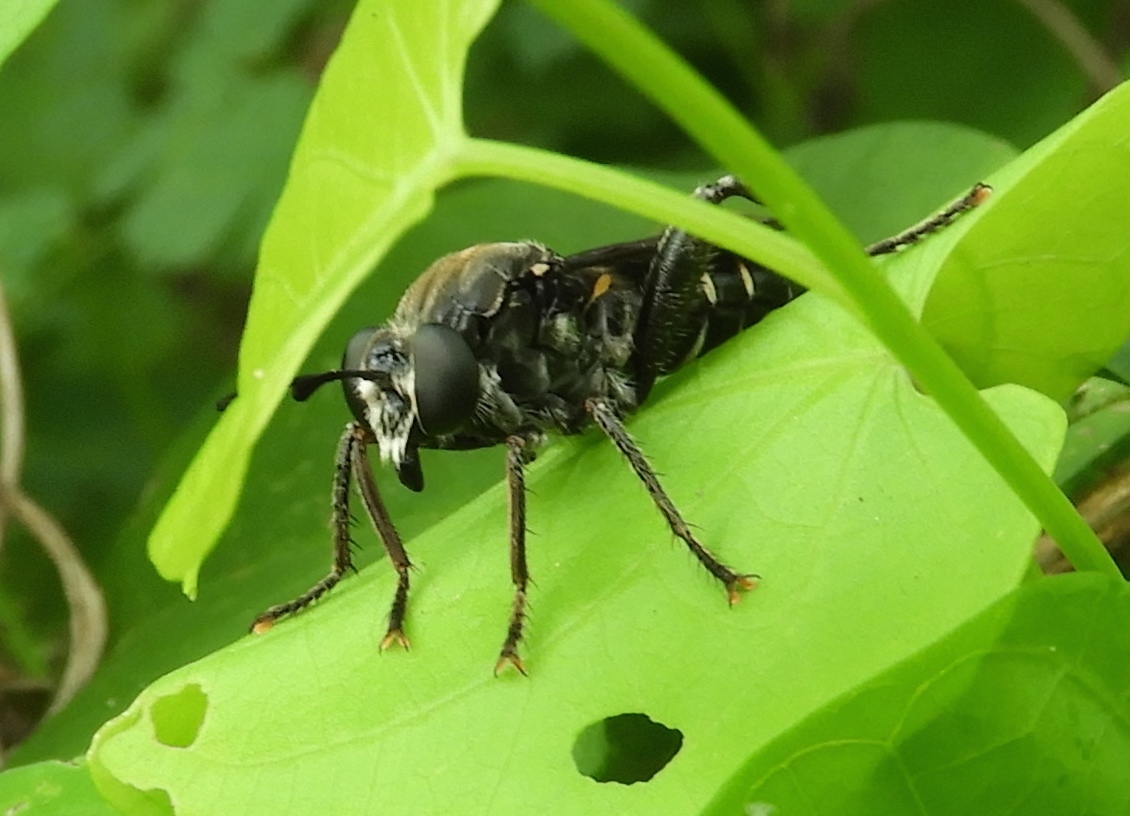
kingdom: Animalia
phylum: Arthropoda
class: Insecta
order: Diptera
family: Mydidae
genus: Mydas
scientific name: Mydas
